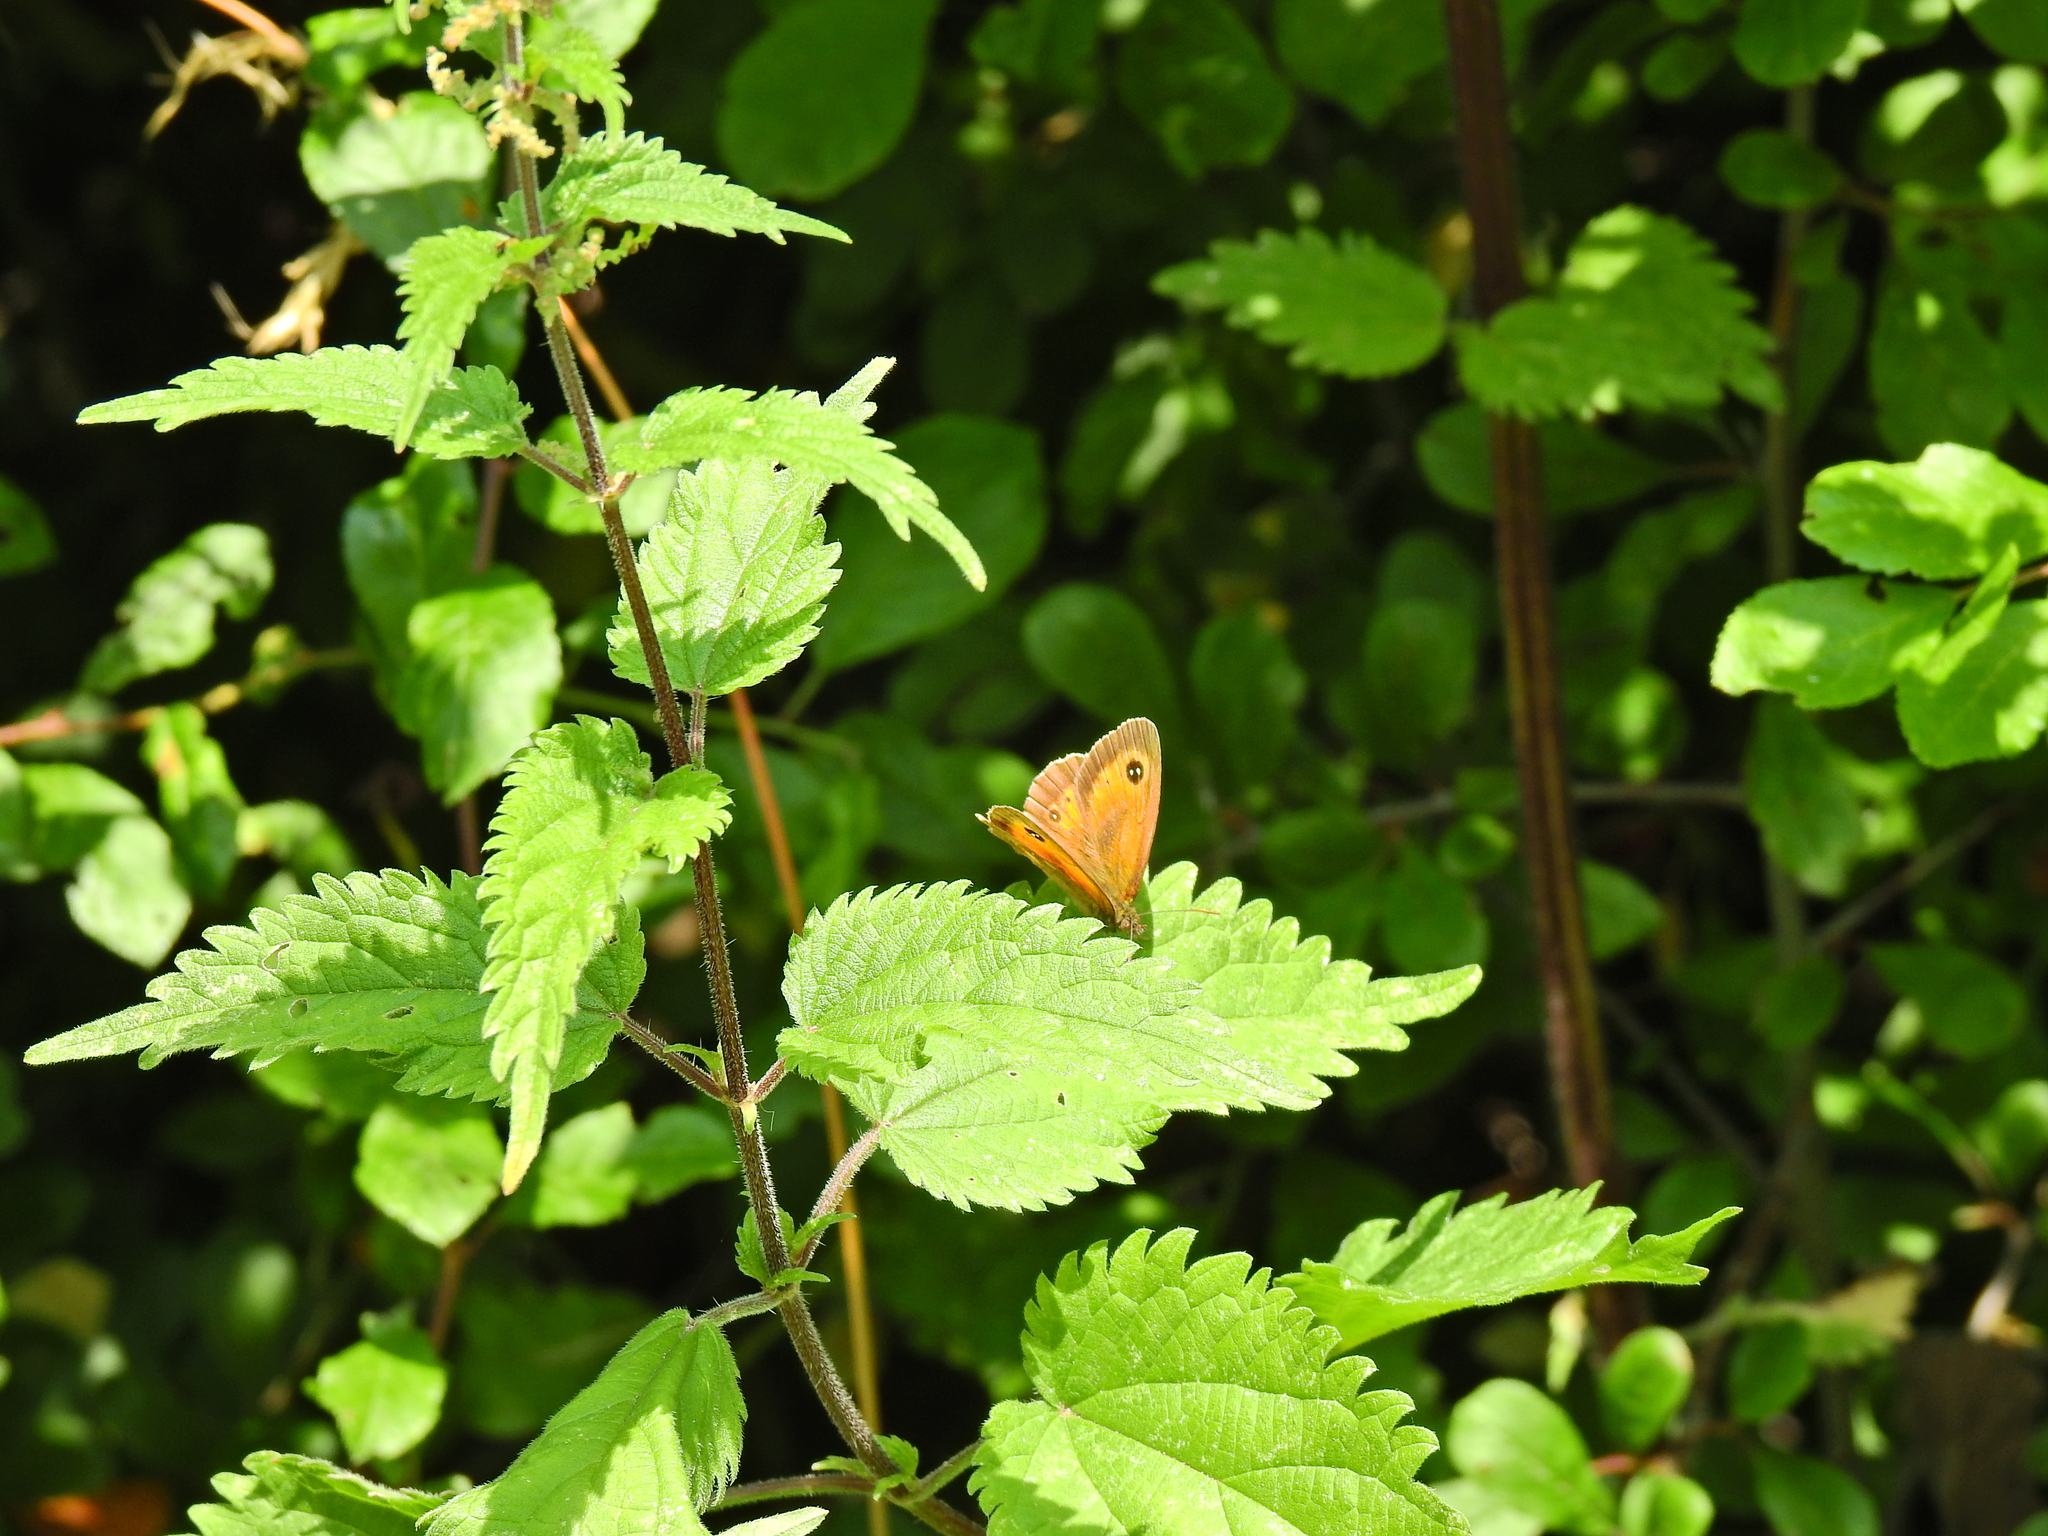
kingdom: Animalia
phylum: Arthropoda
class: Insecta
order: Lepidoptera
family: Nymphalidae
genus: Pyronia
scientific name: Pyronia tithonus
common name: Gatekeeper
